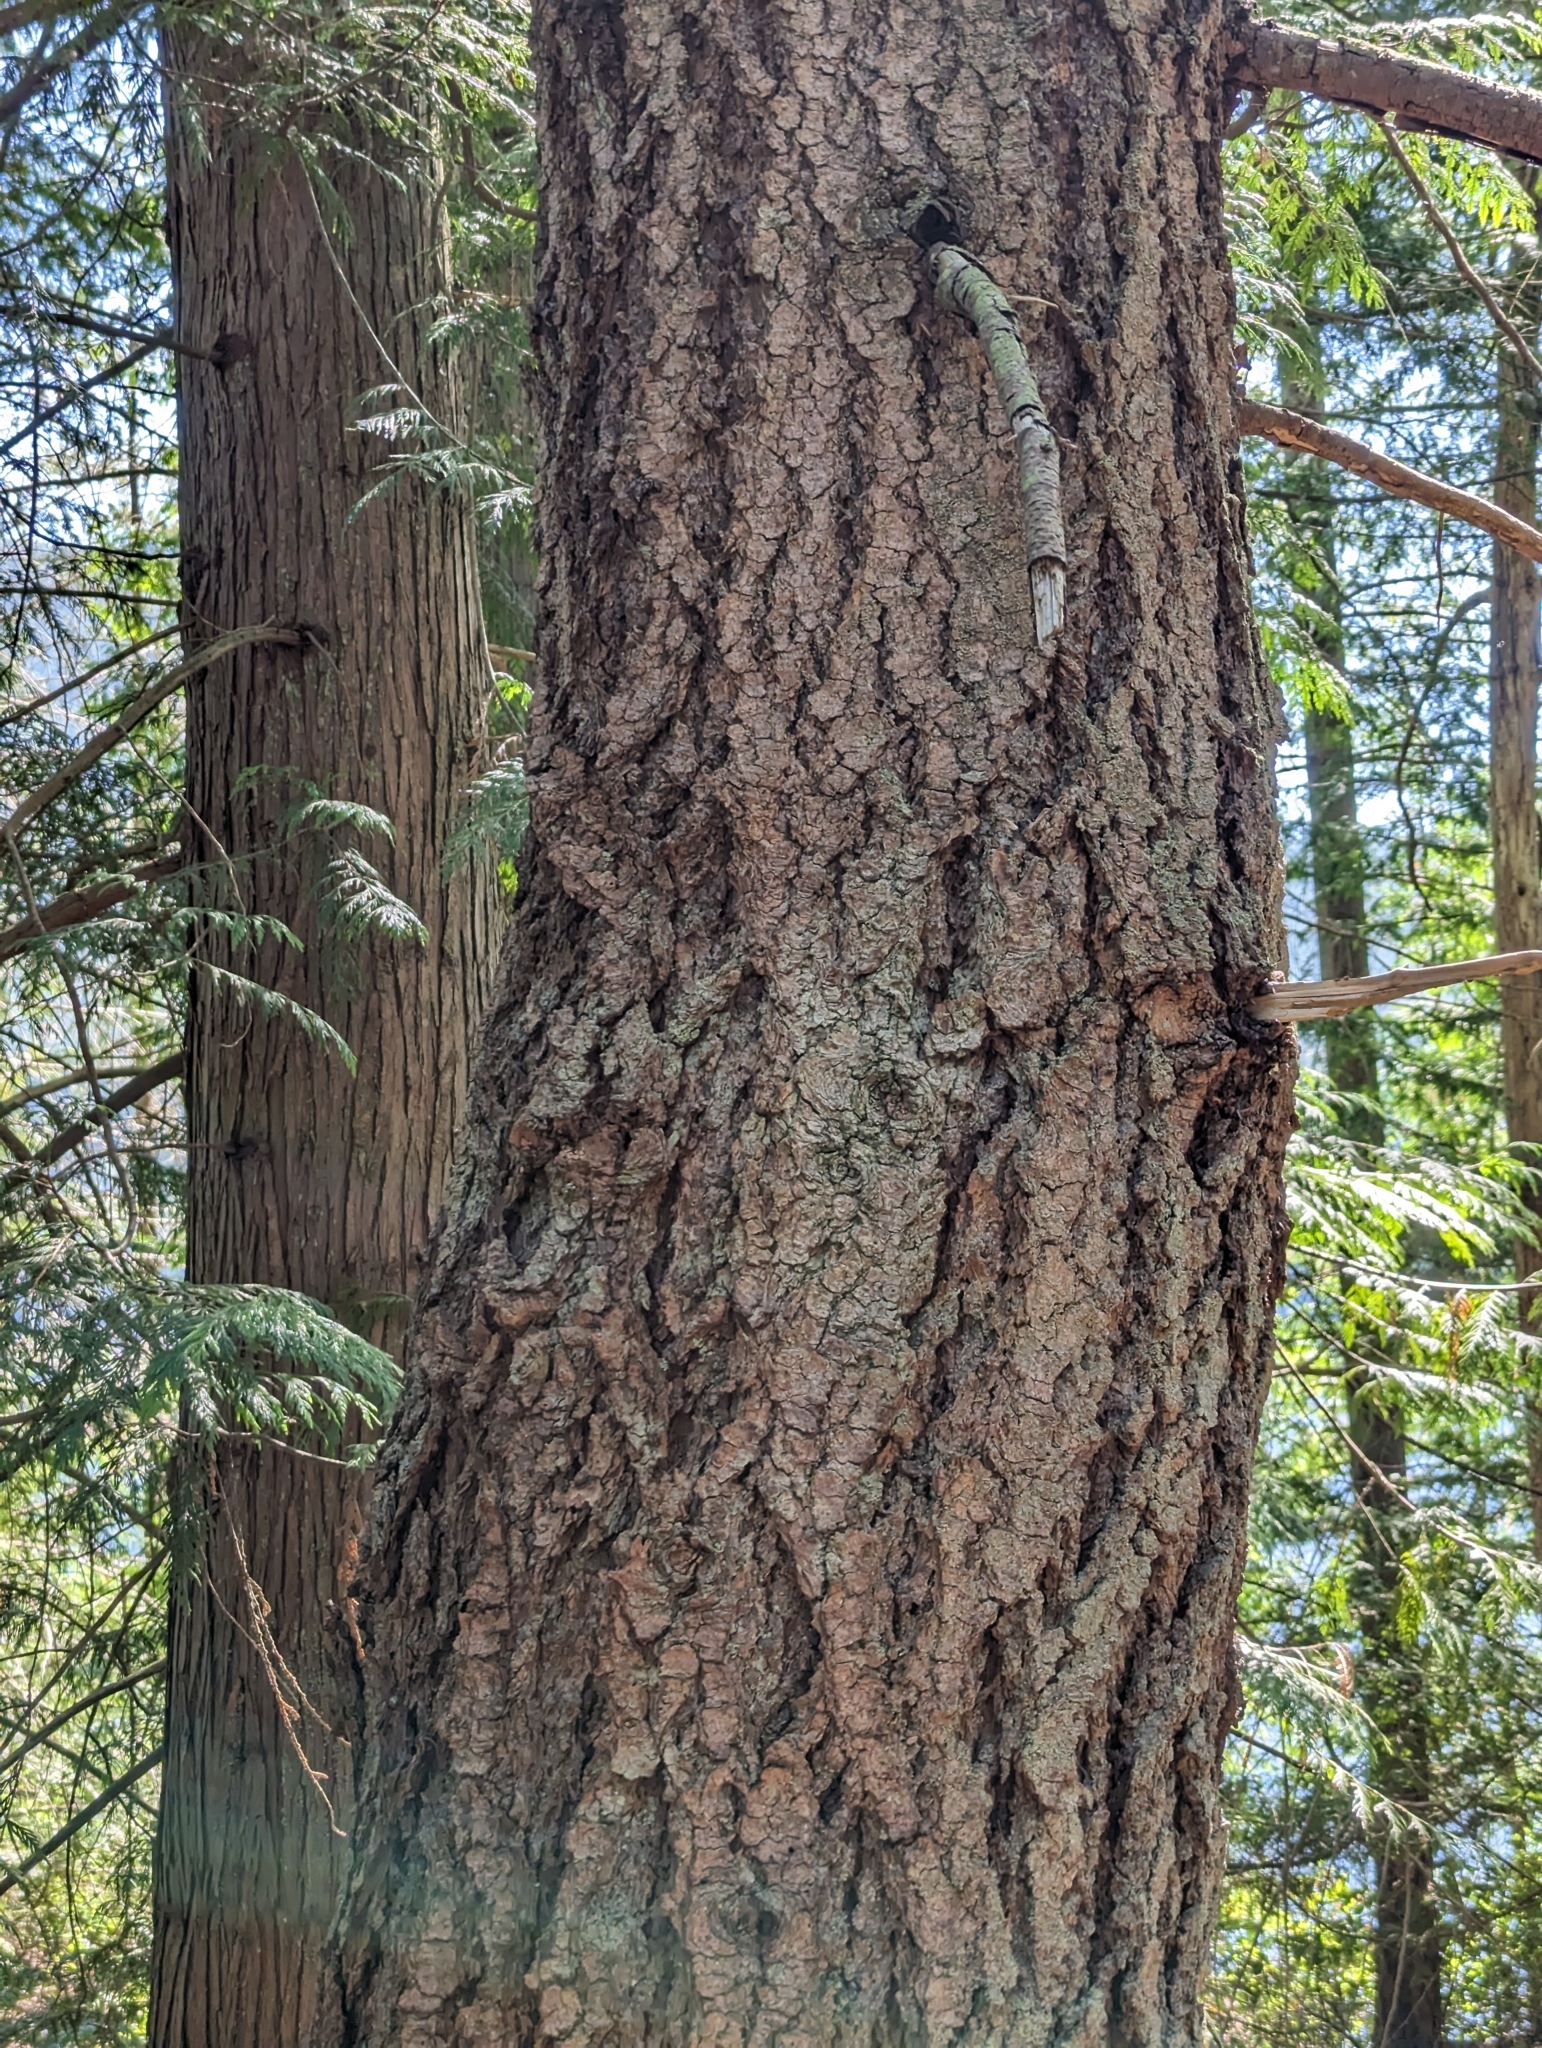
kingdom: Plantae
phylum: Tracheophyta
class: Pinopsida
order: Pinales
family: Pinaceae
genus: Pseudotsuga
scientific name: Pseudotsuga menziesii
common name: Douglas fir
